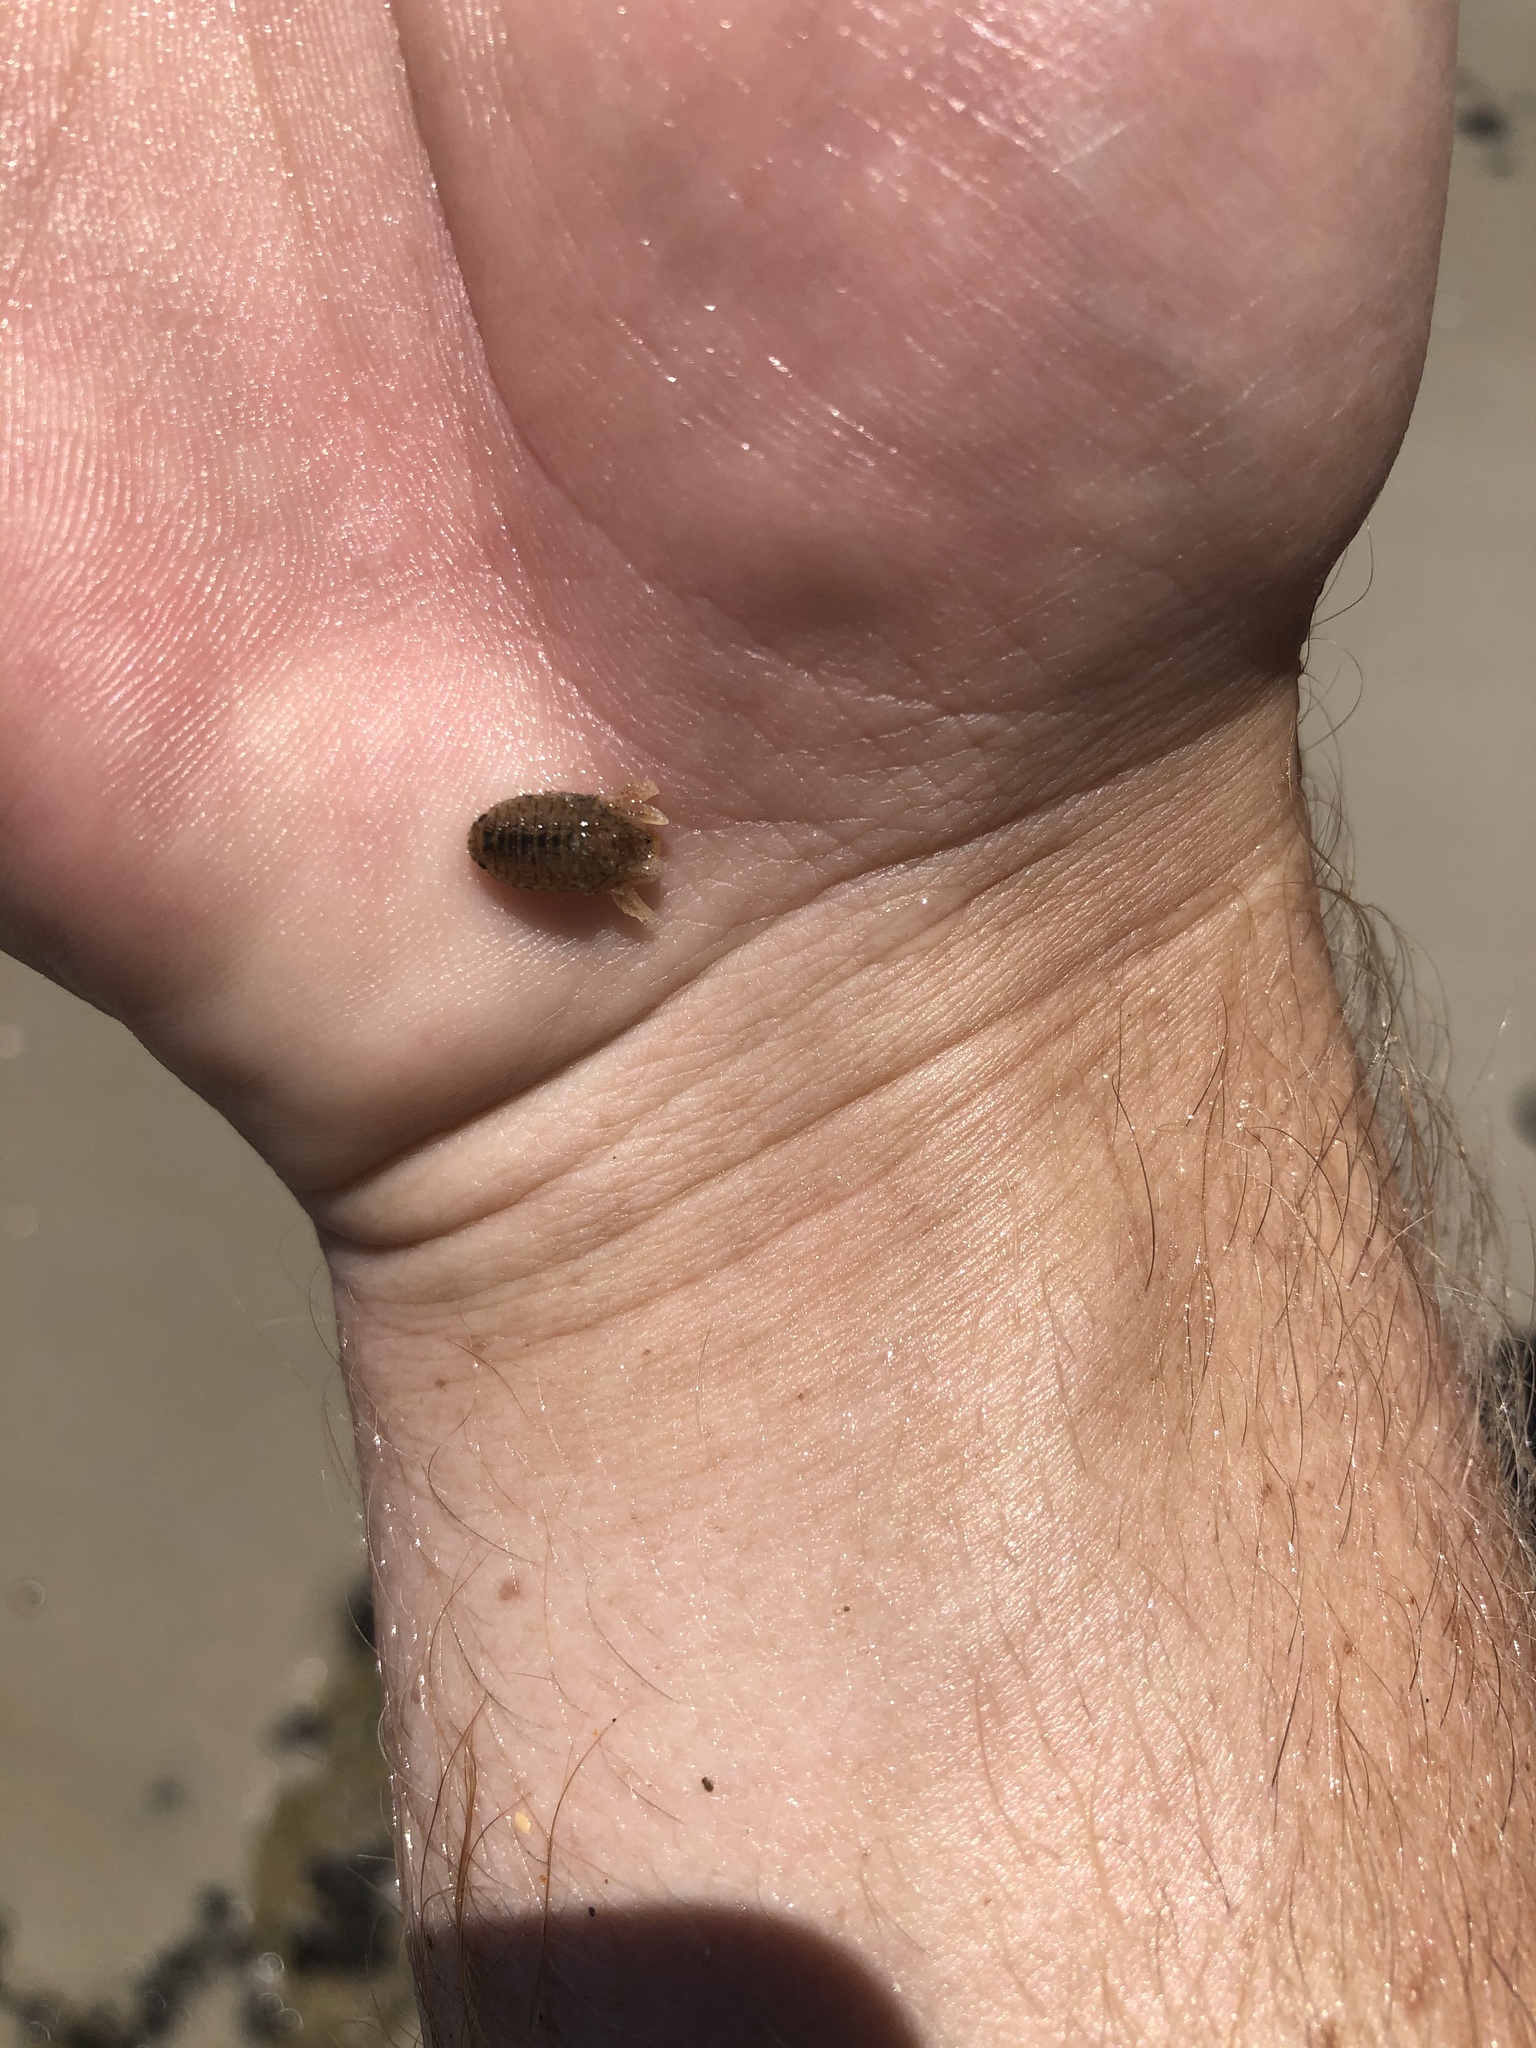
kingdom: Animalia
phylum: Arthropoda
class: Malacostraca
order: Isopoda
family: Sphaeromatidae
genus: Sphaeroma
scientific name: Sphaeroma walkeri
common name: Marine isopod
